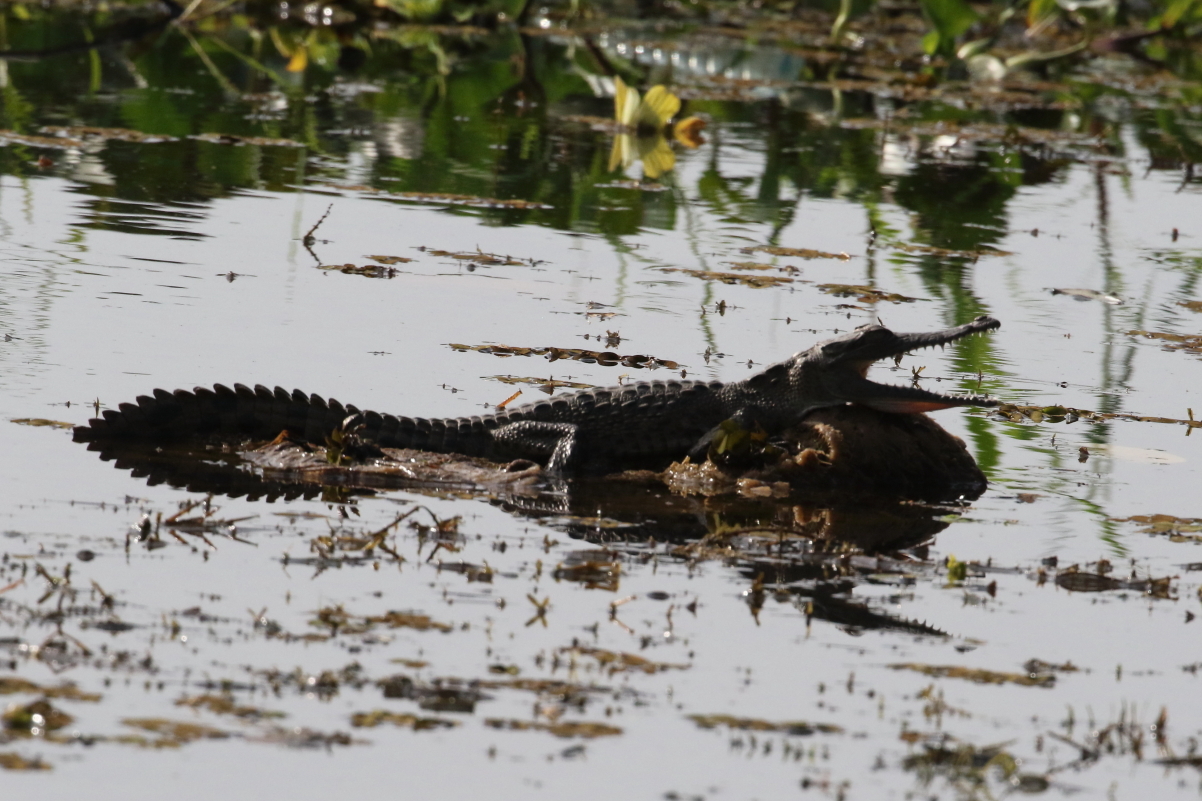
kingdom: Animalia
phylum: Chordata
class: Crocodylia
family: Crocodylidae
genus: Crocodylus
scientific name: Crocodylus acutus
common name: American crocodile
